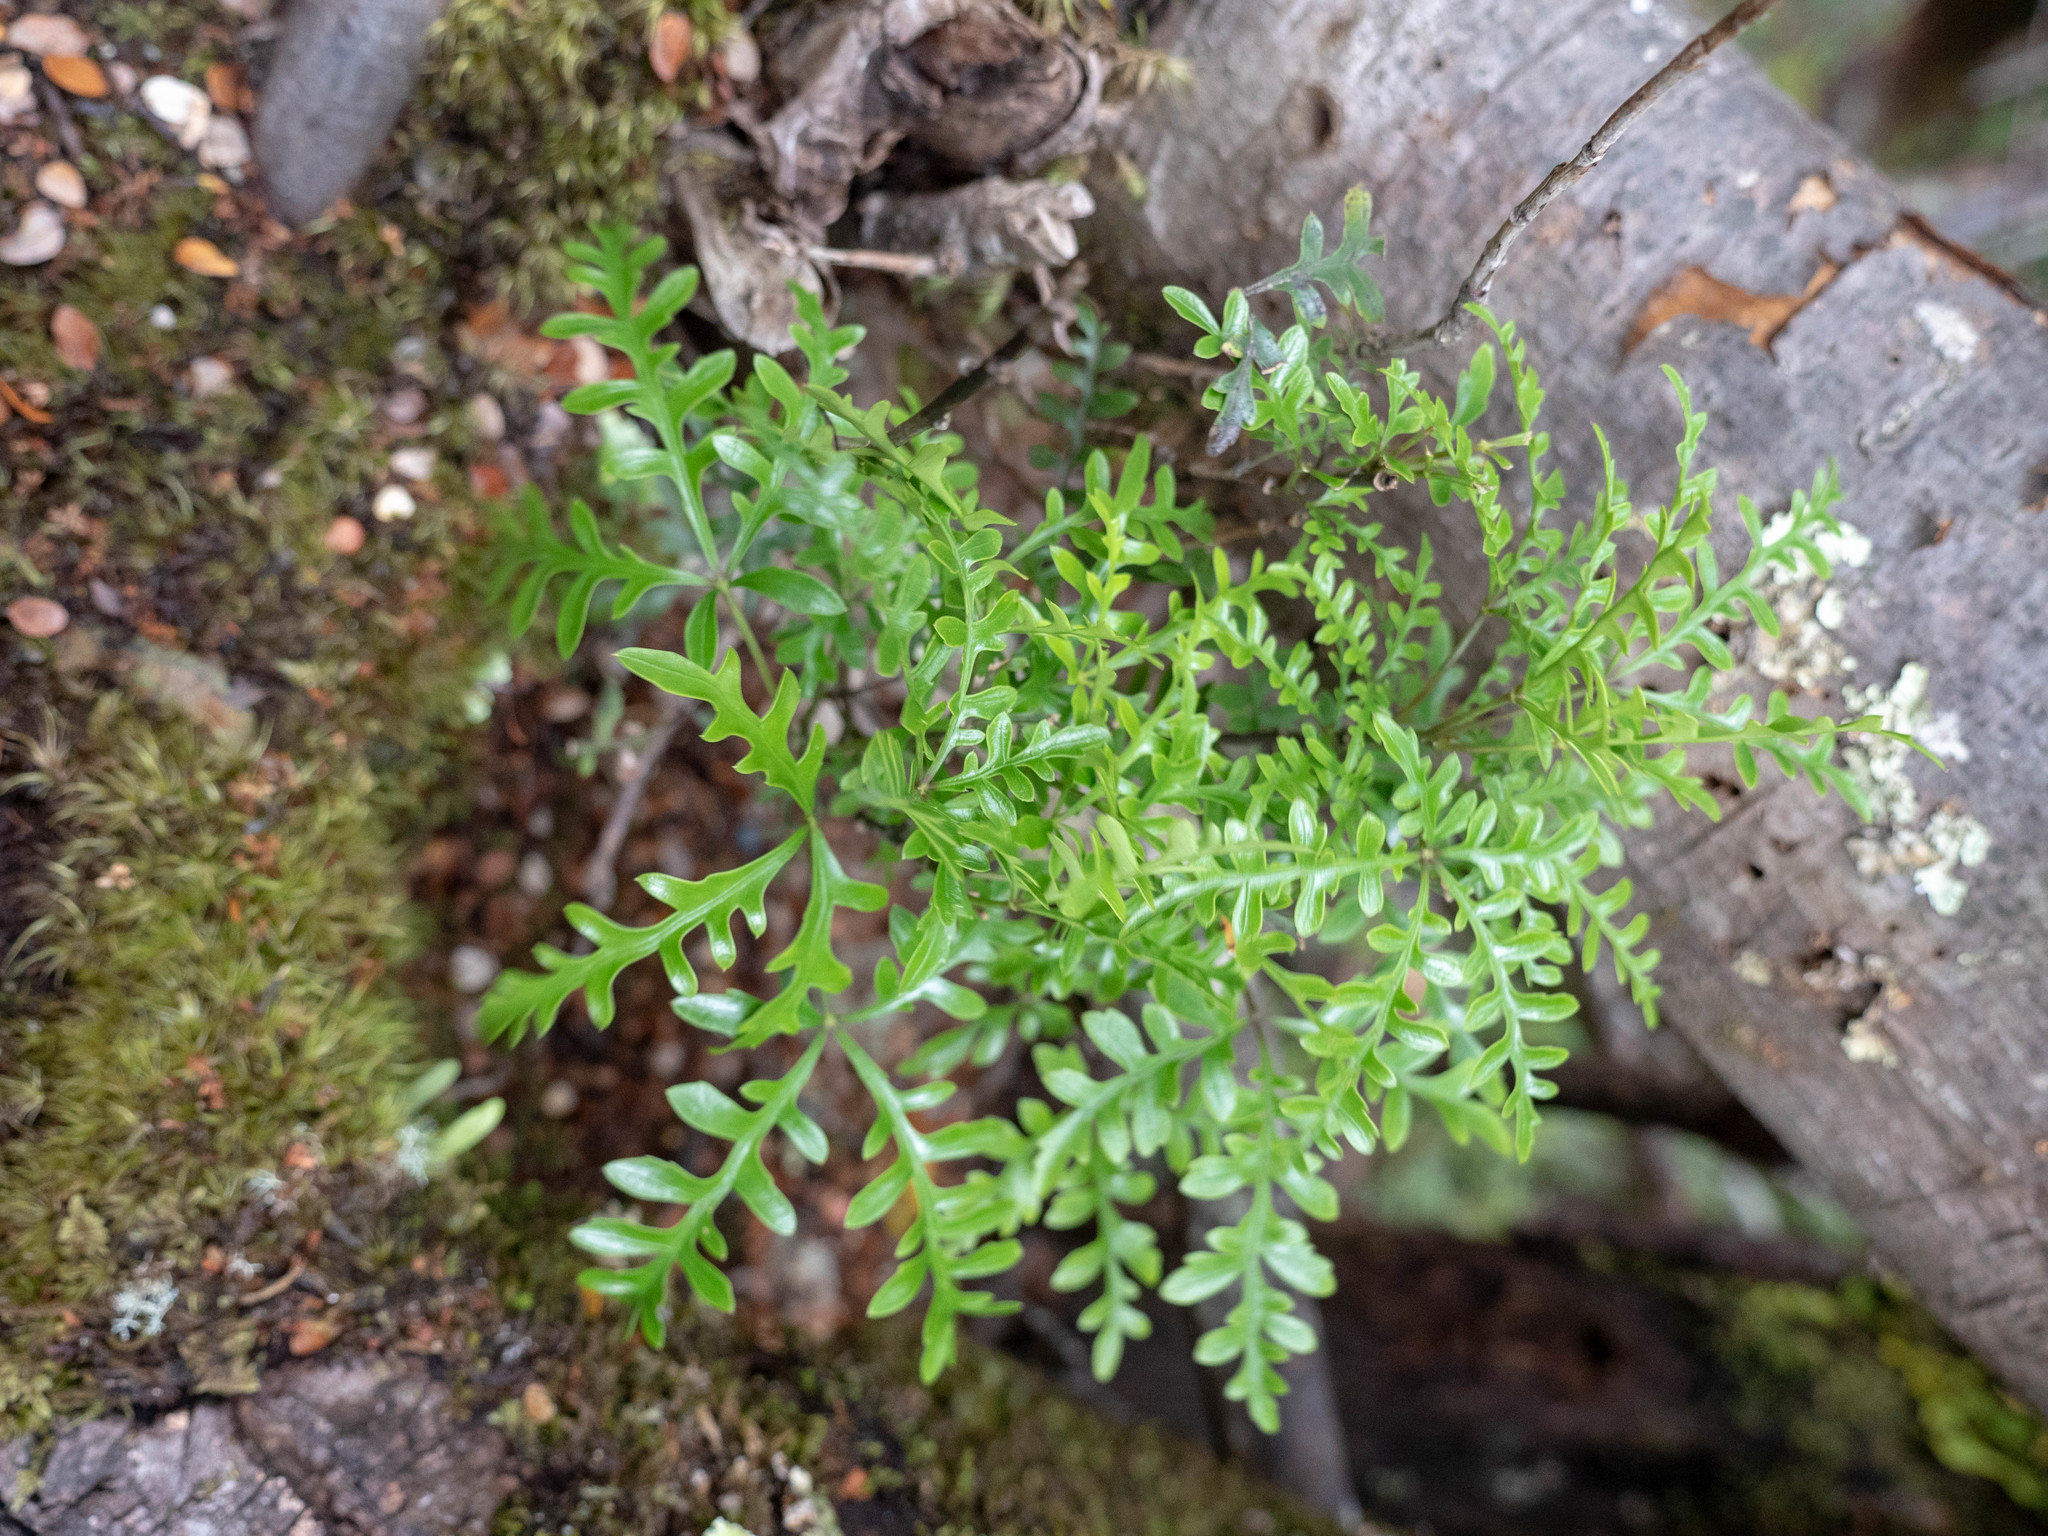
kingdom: Plantae
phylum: Tracheophyta
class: Magnoliopsida
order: Apiales
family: Araliaceae
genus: Raukaua
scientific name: Raukaua simplex
